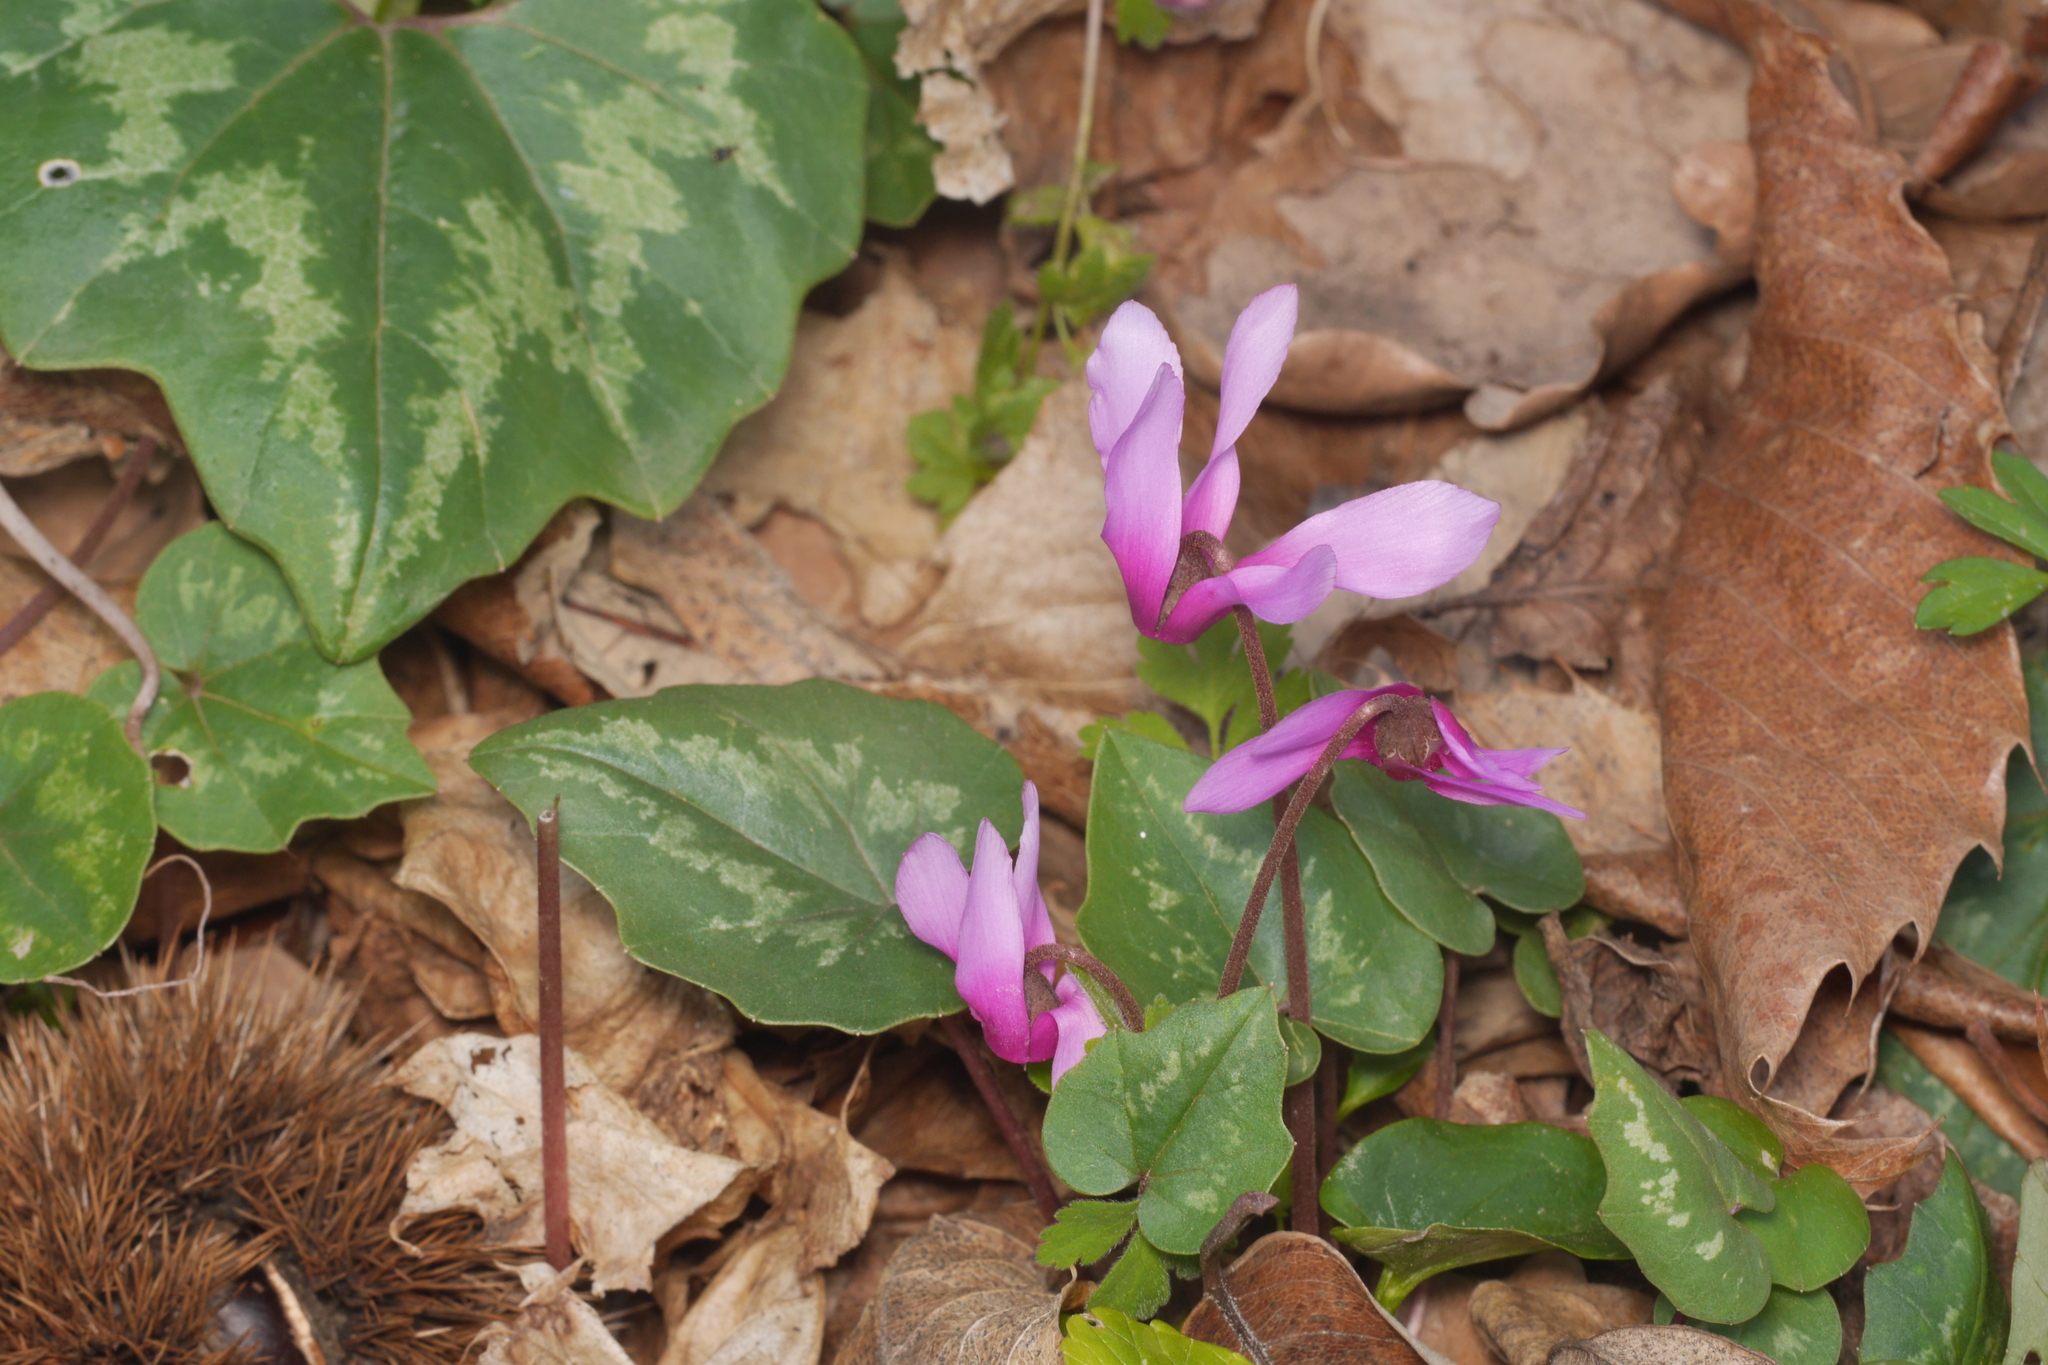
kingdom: Plantae
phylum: Tracheophyta
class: Magnoliopsida
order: Ericales
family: Primulaceae
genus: Cyclamen
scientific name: Cyclamen repandum
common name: Spring sowbread
